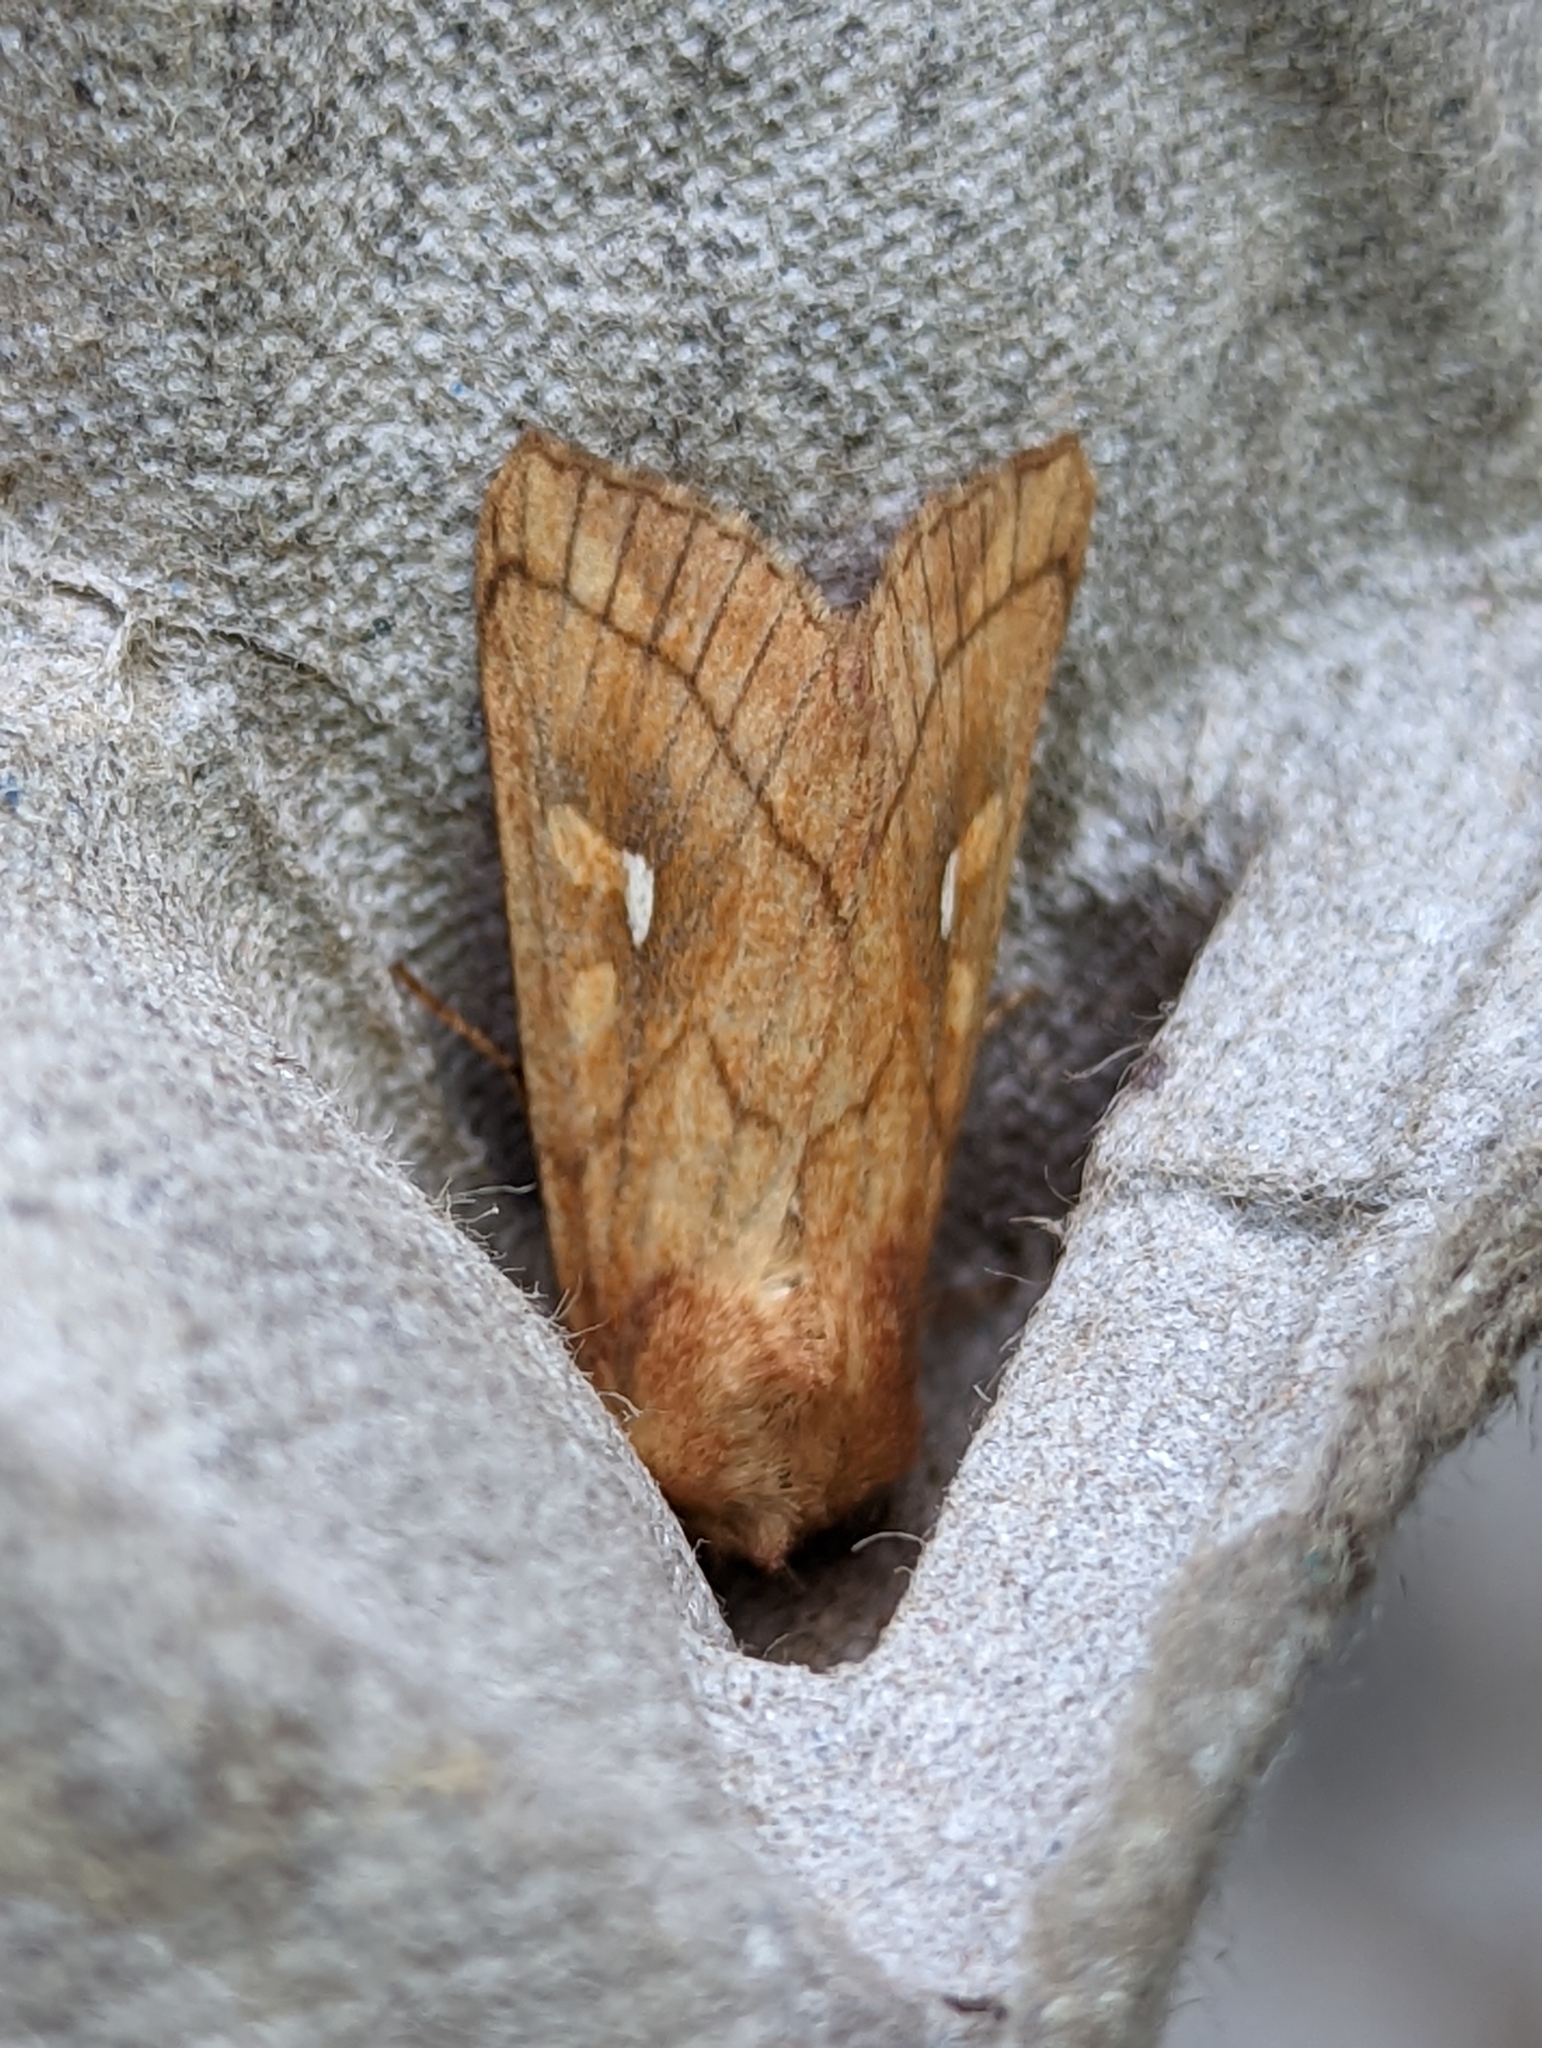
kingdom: Animalia
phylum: Arthropoda
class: Insecta
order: Lepidoptera
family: Noctuidae
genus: Mythimna
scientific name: Mythimna conigera
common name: Brown-line bright-eye
